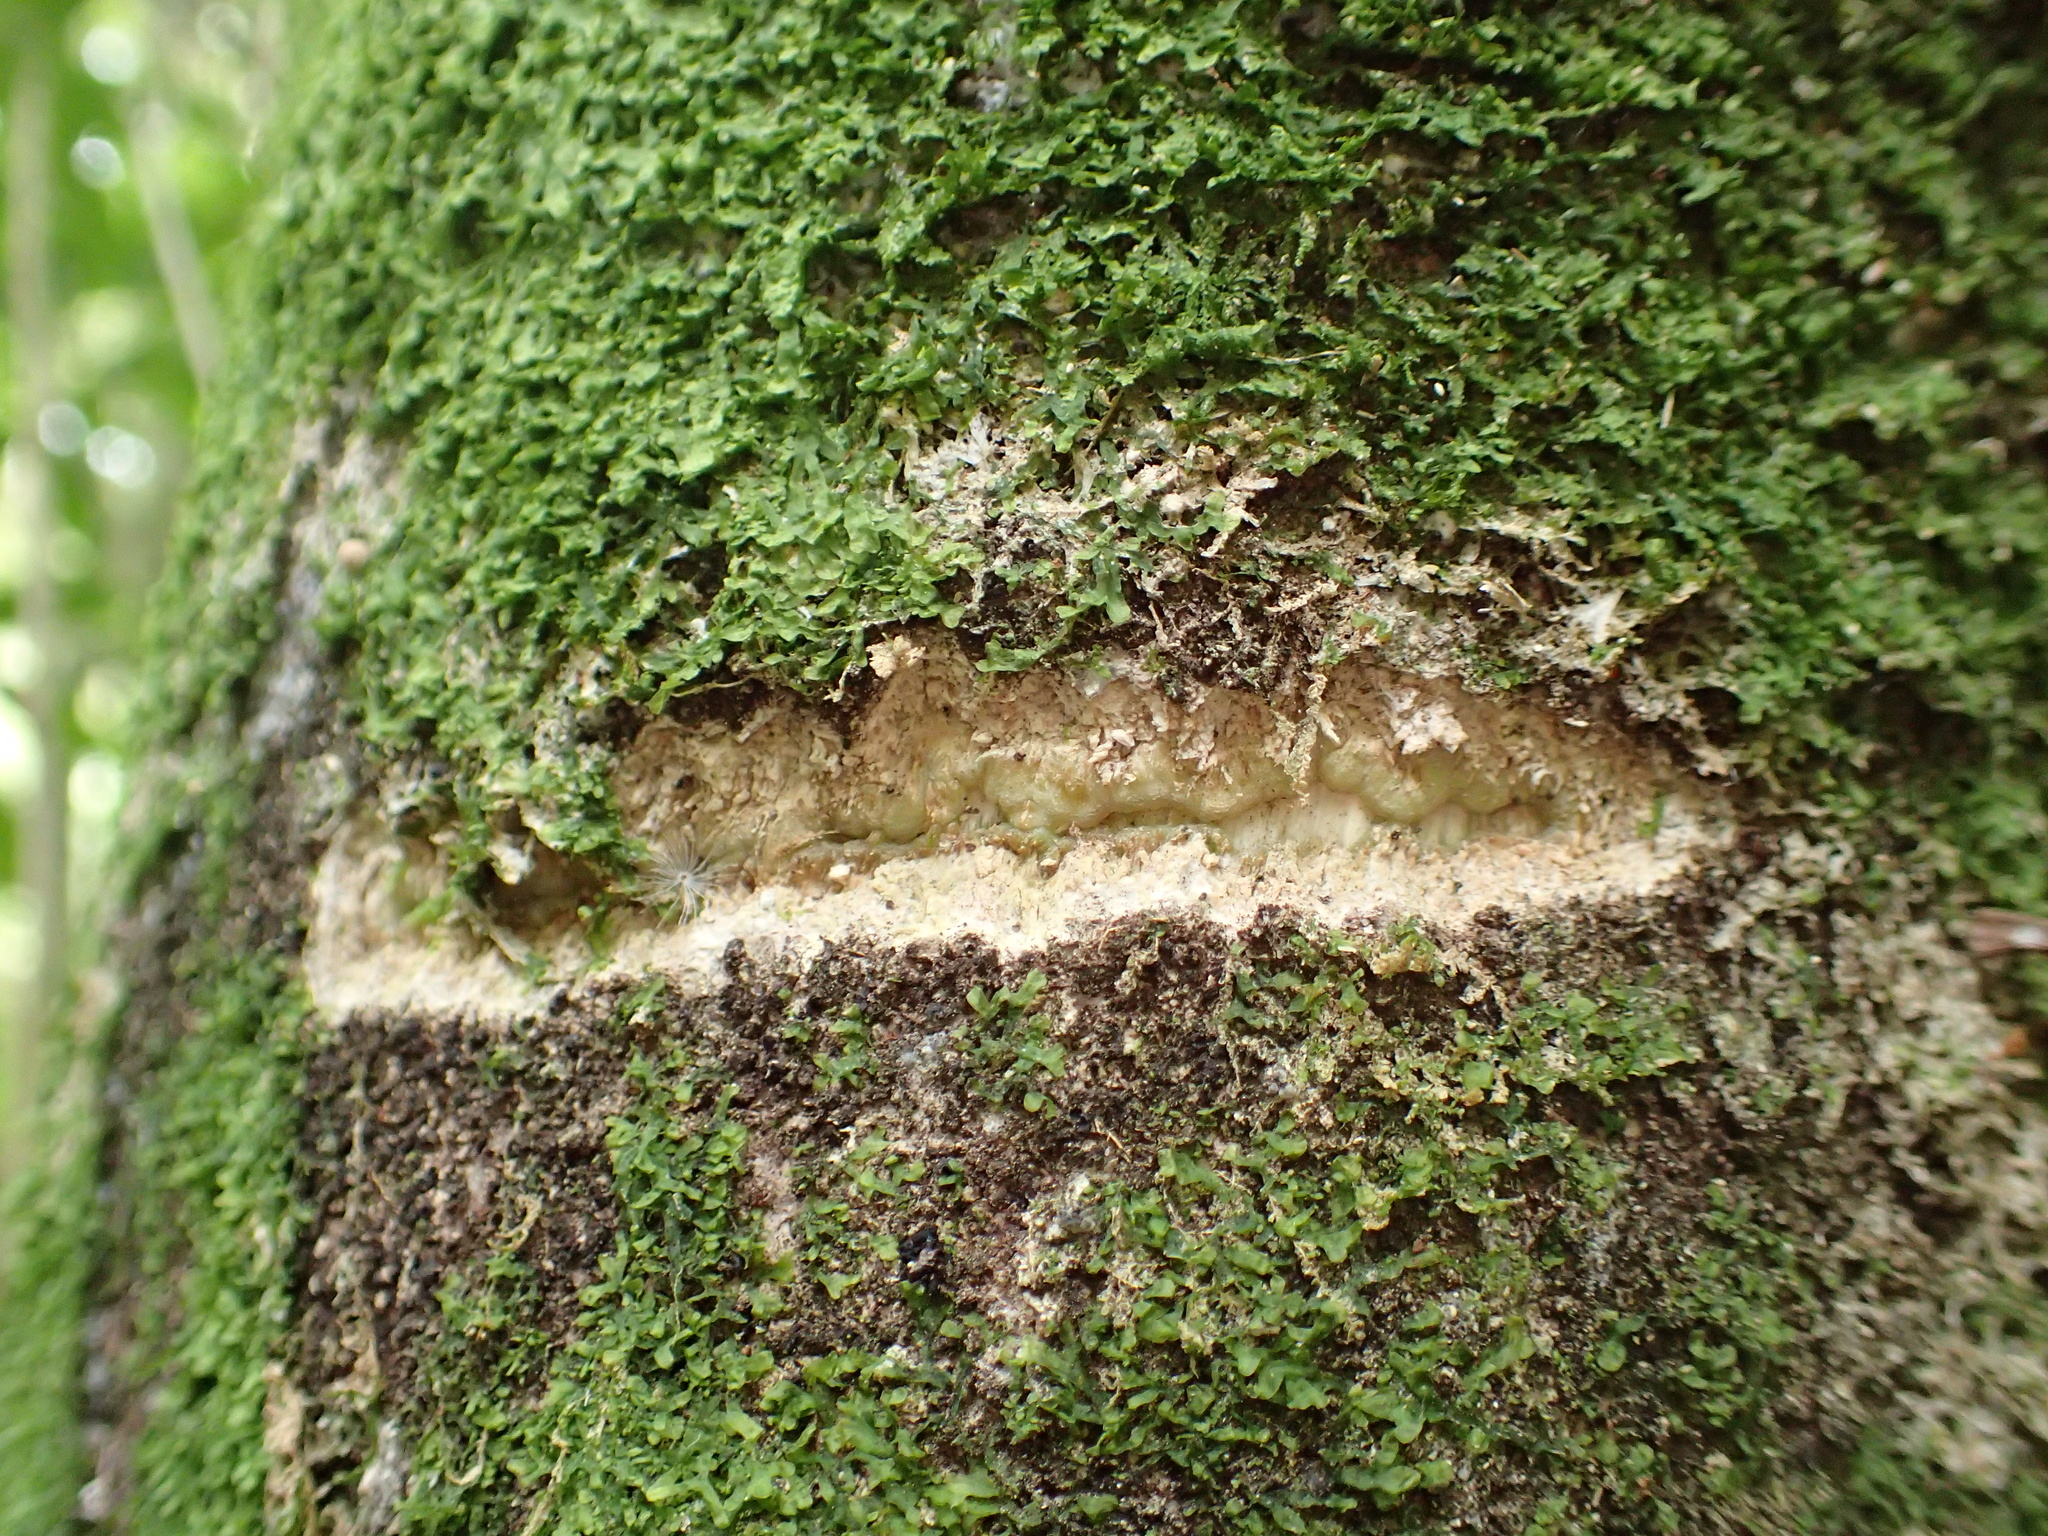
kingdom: Animalia
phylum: Chordata
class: Aves
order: Psittaciformes
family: Psittacidae
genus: Nestor
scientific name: Nestor meridionalis
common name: New zealand kaka
